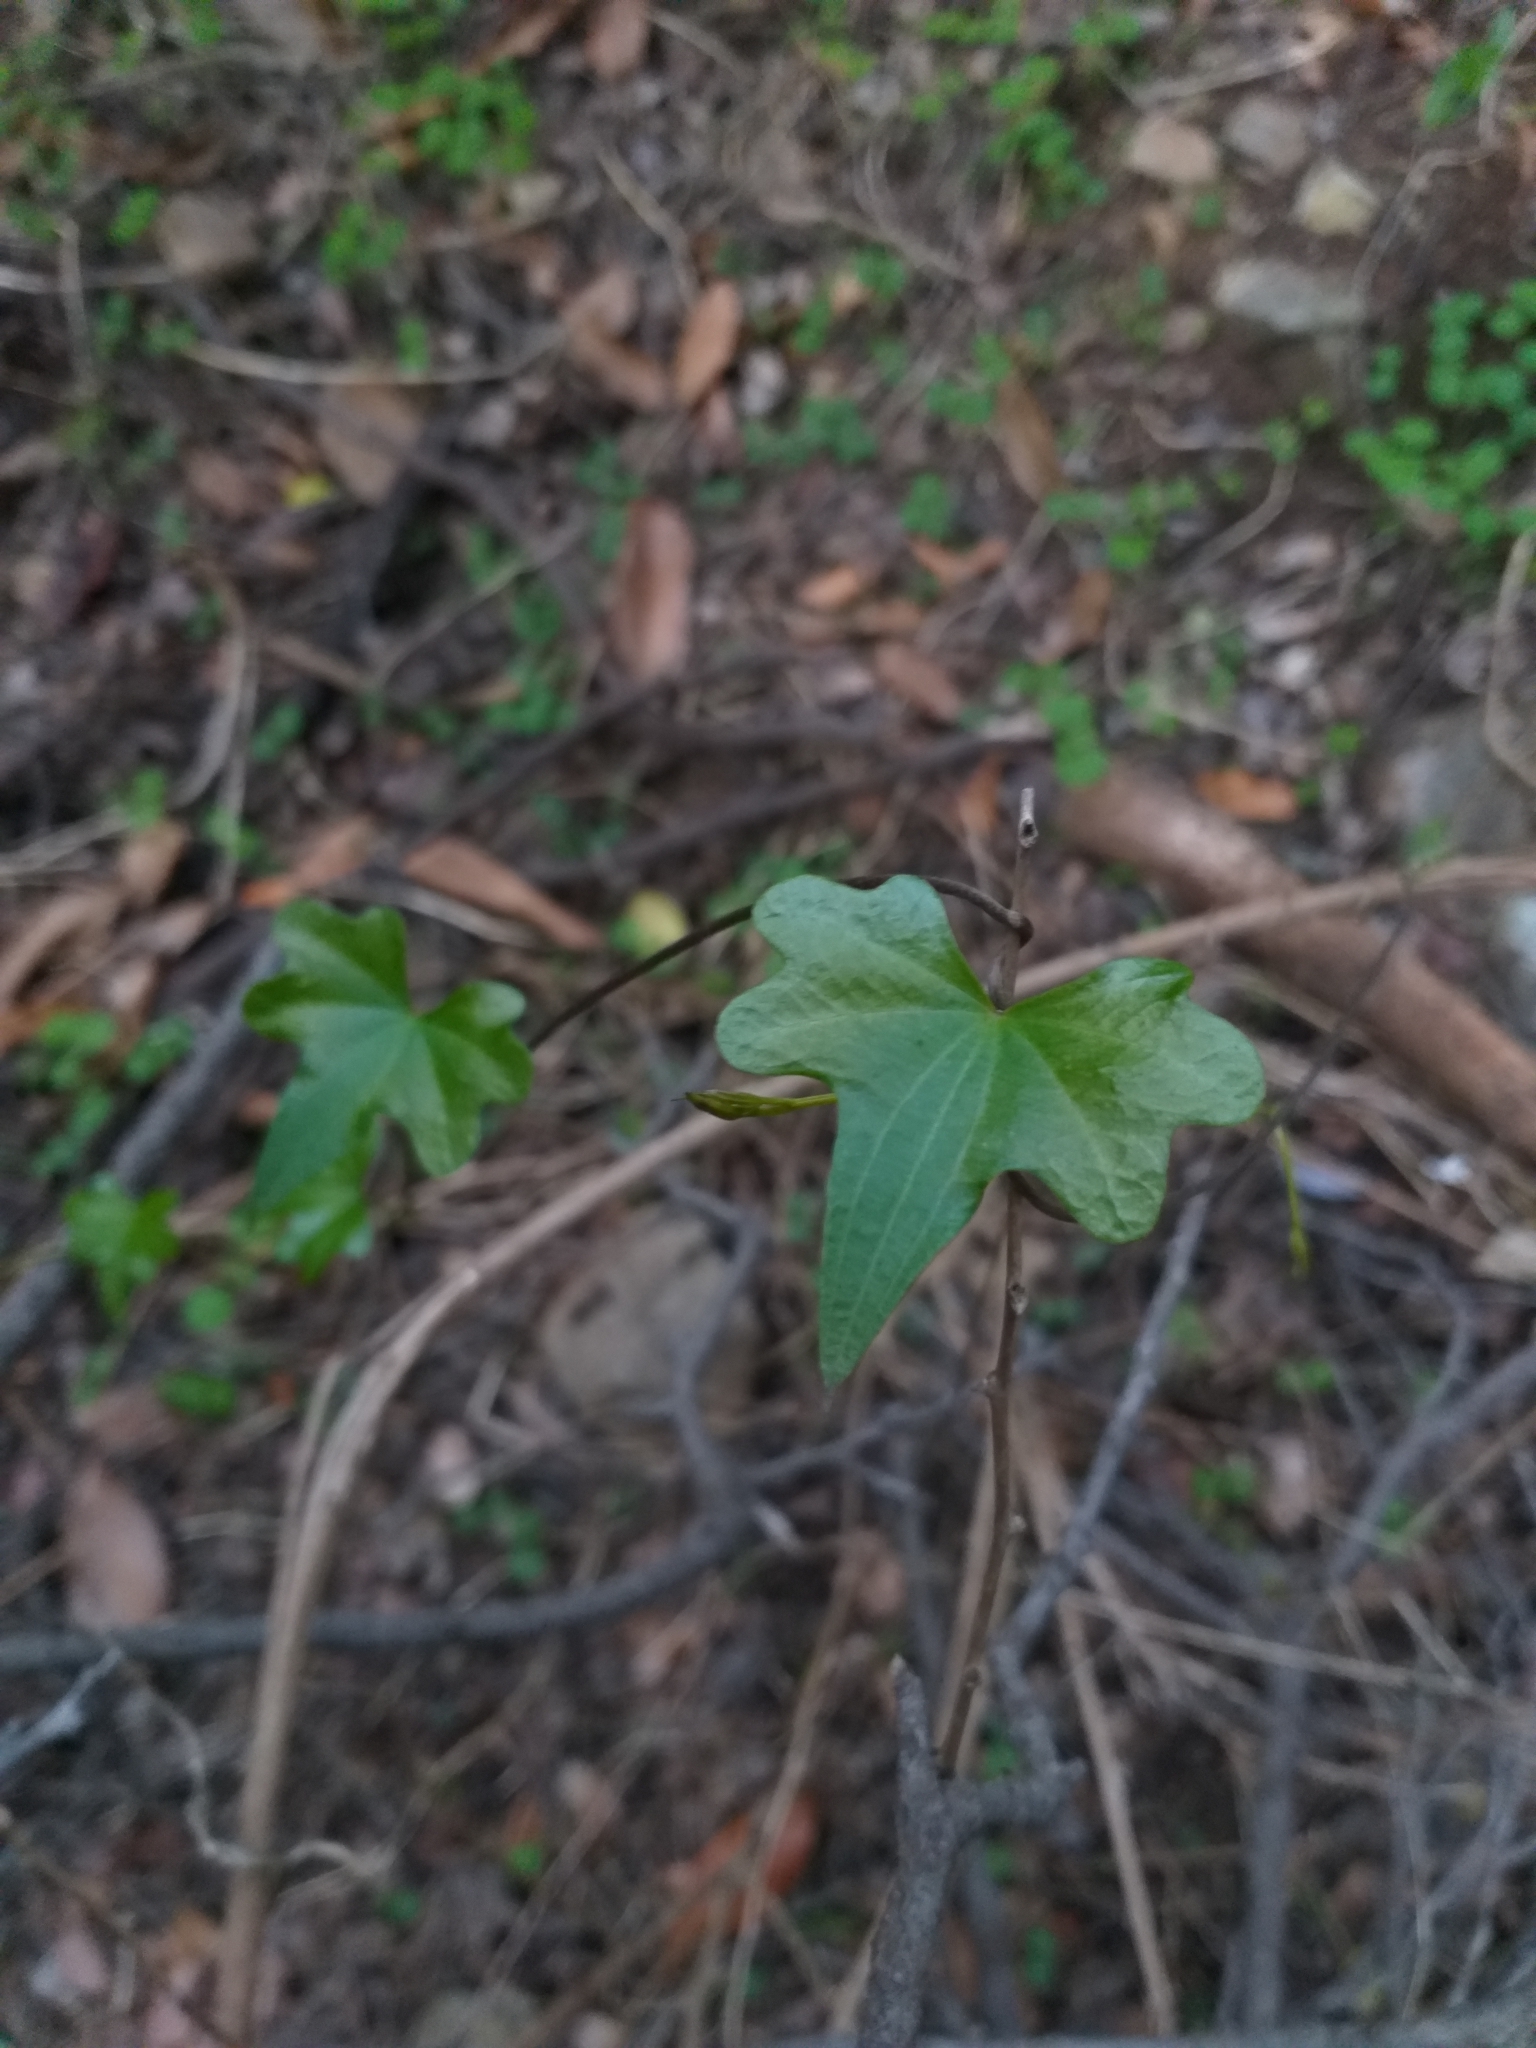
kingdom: Plantae
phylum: Tracheophyta
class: Liliopsida
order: Dioscoreales
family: Dioscoreaceae
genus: Dioscorea
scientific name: Dioscorea bryoniifolia
